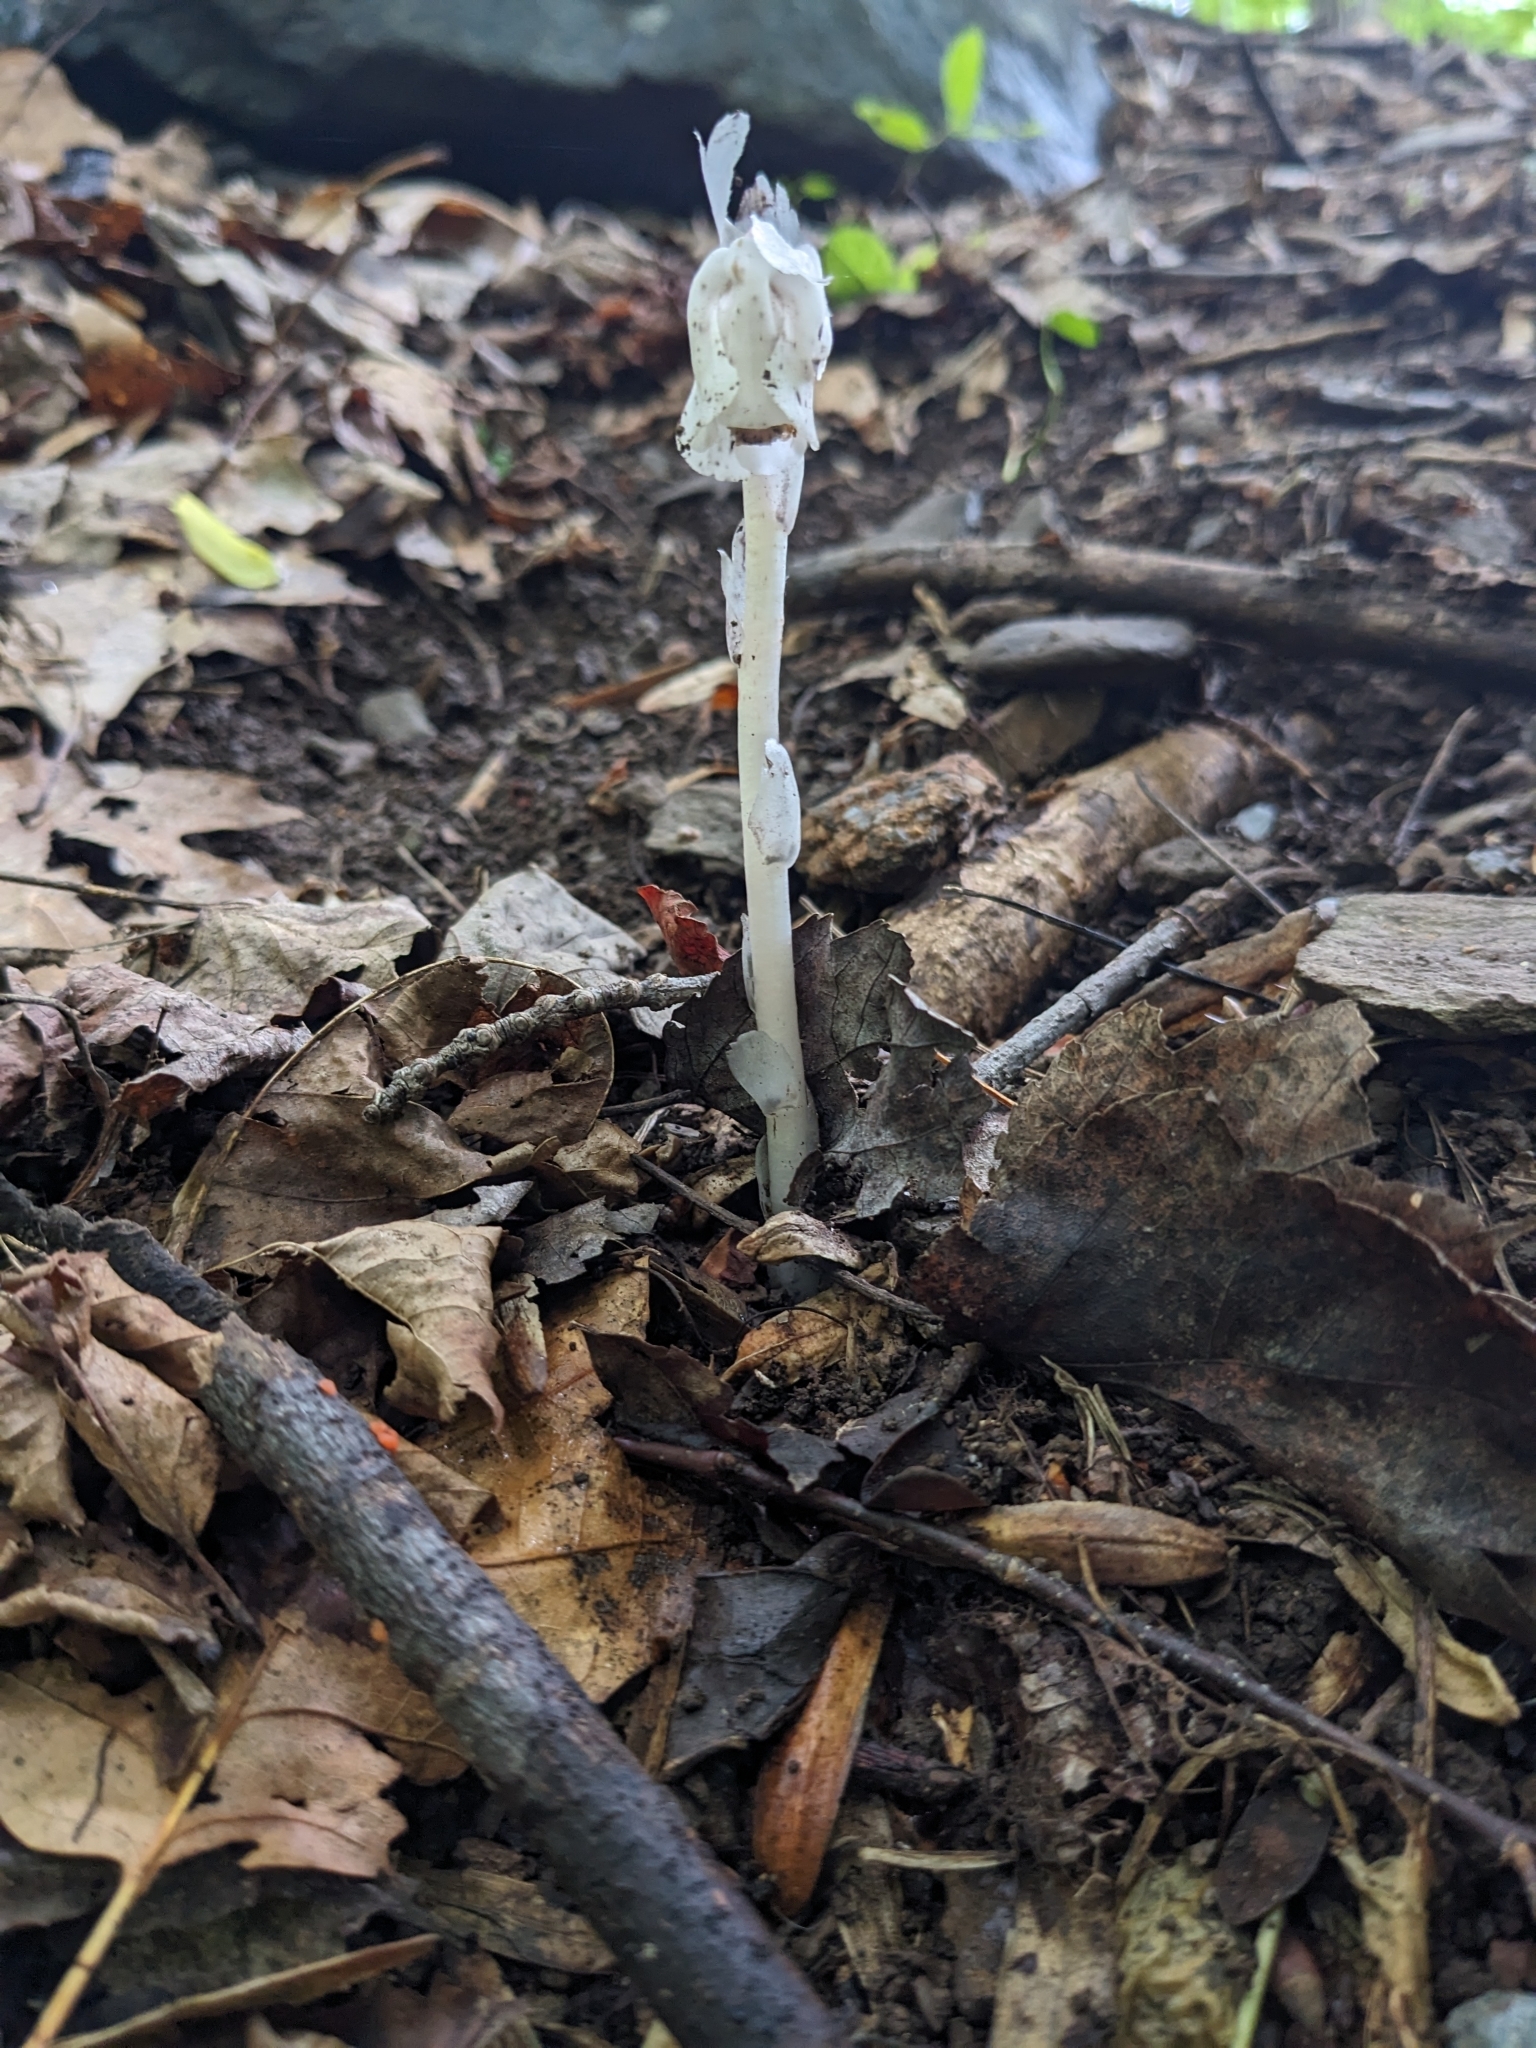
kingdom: Plantae
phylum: Tracheophyta
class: Magnoliopsida
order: Ericales
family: Ericaceae
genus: Monotropa
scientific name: Monotropa uniflora
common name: Convulsion root
